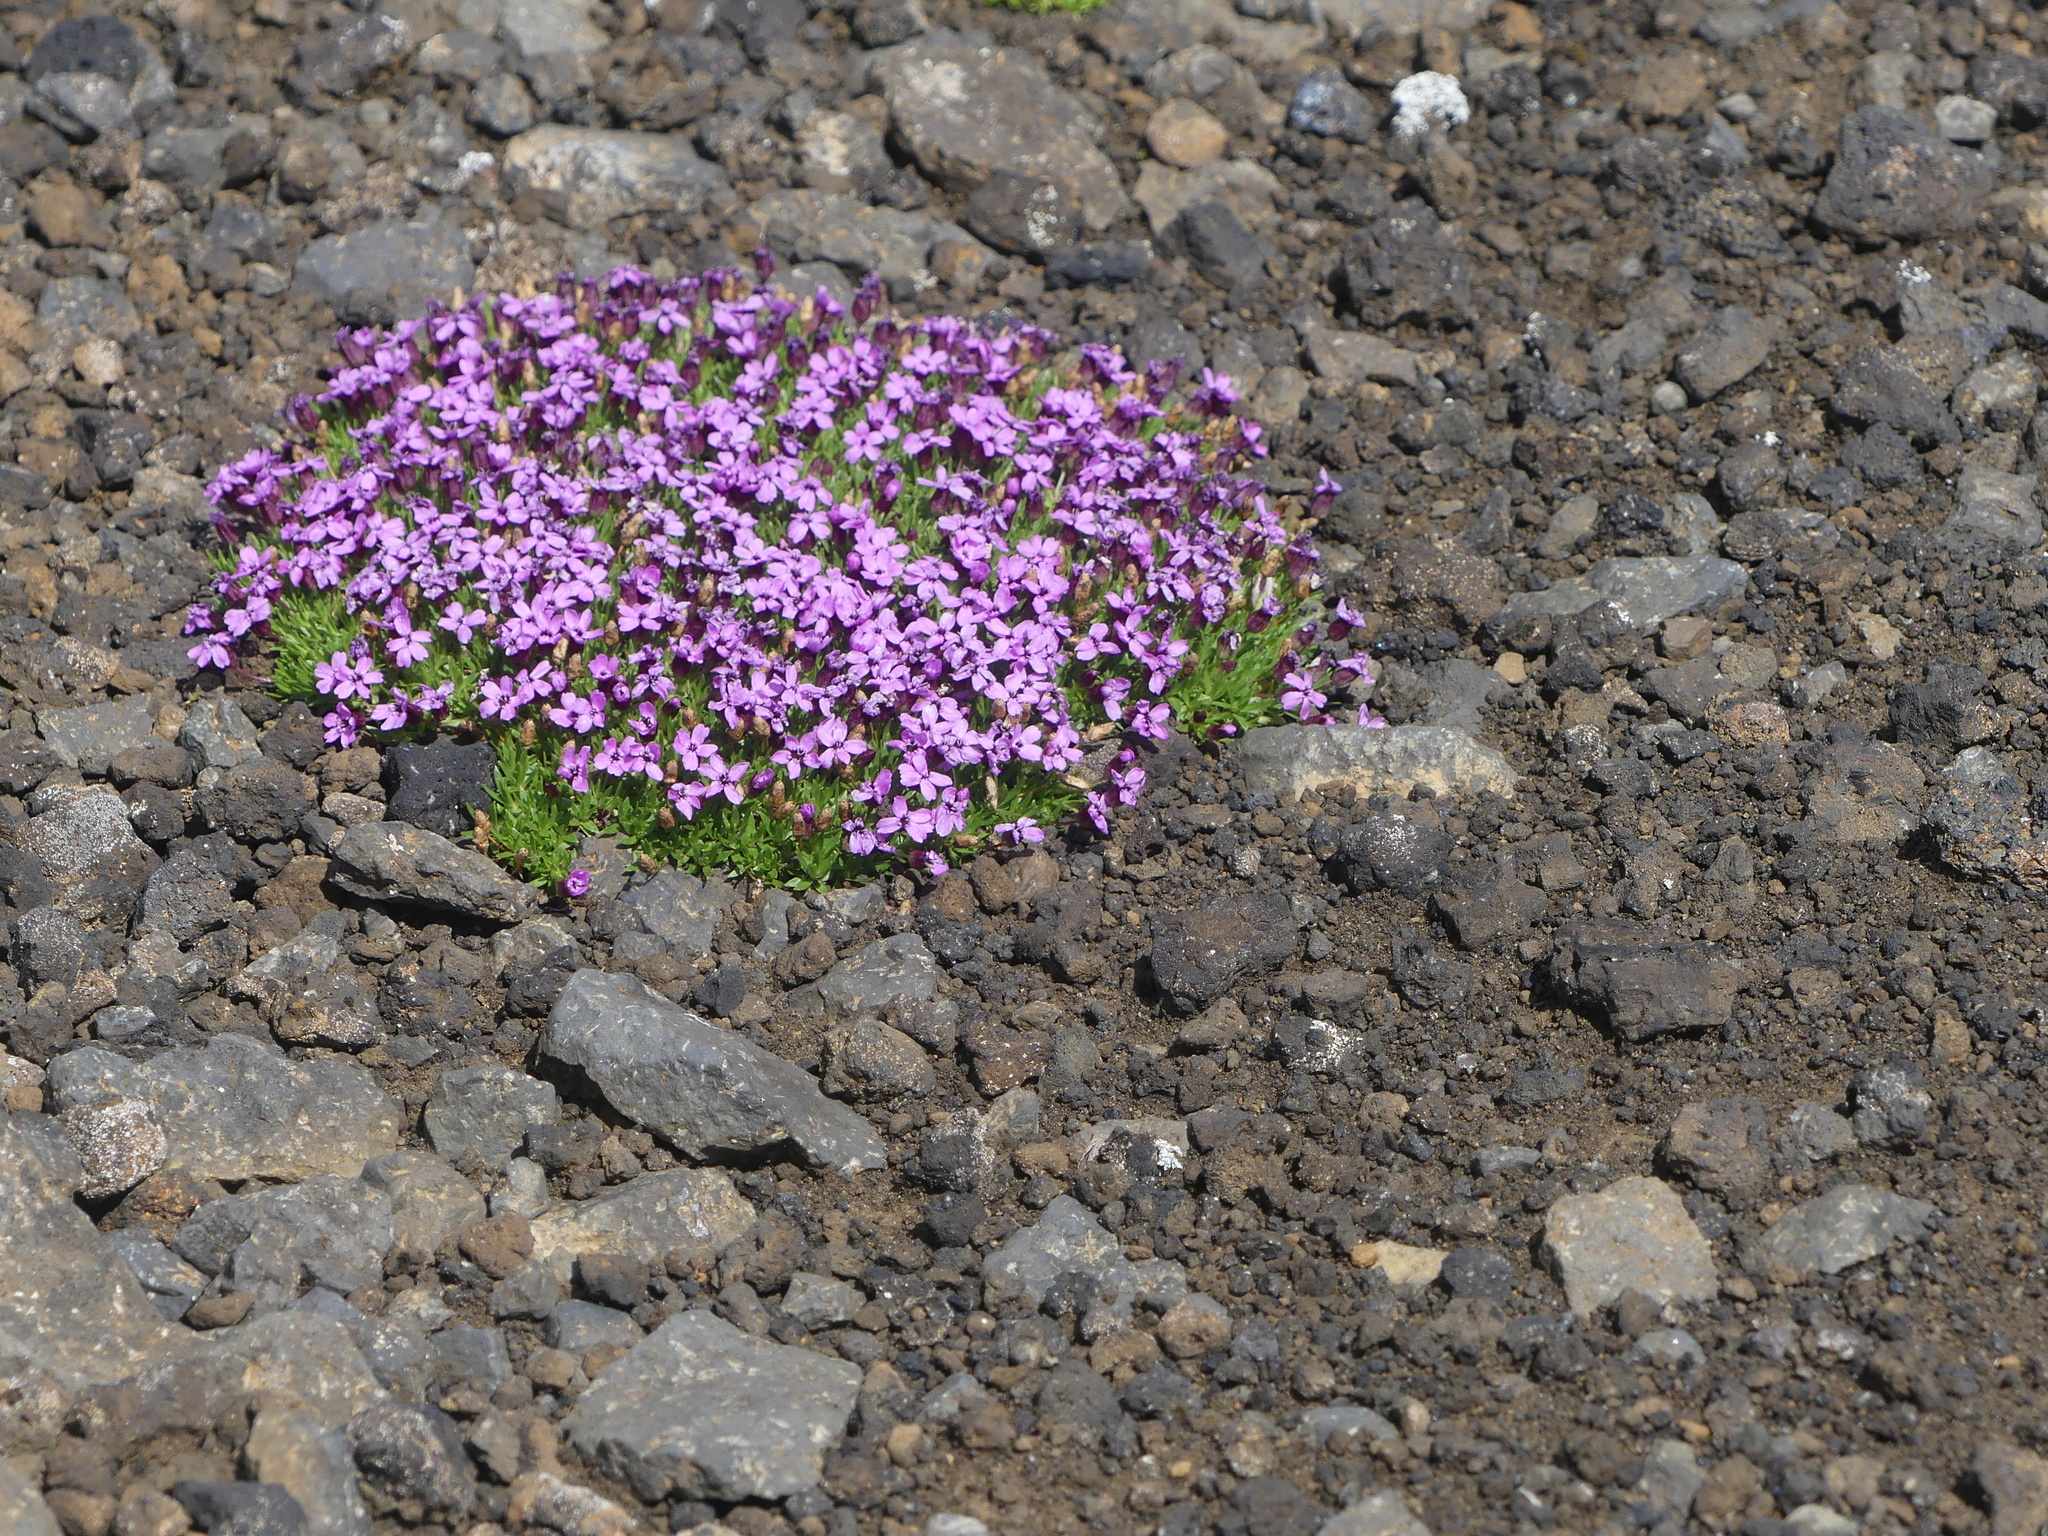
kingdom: Plantae
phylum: Tracheophyta
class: Magnoliopsida
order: Caryophyllales
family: Caryophyllaceae
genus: Silene
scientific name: Silene acaulis
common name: Moss campion
